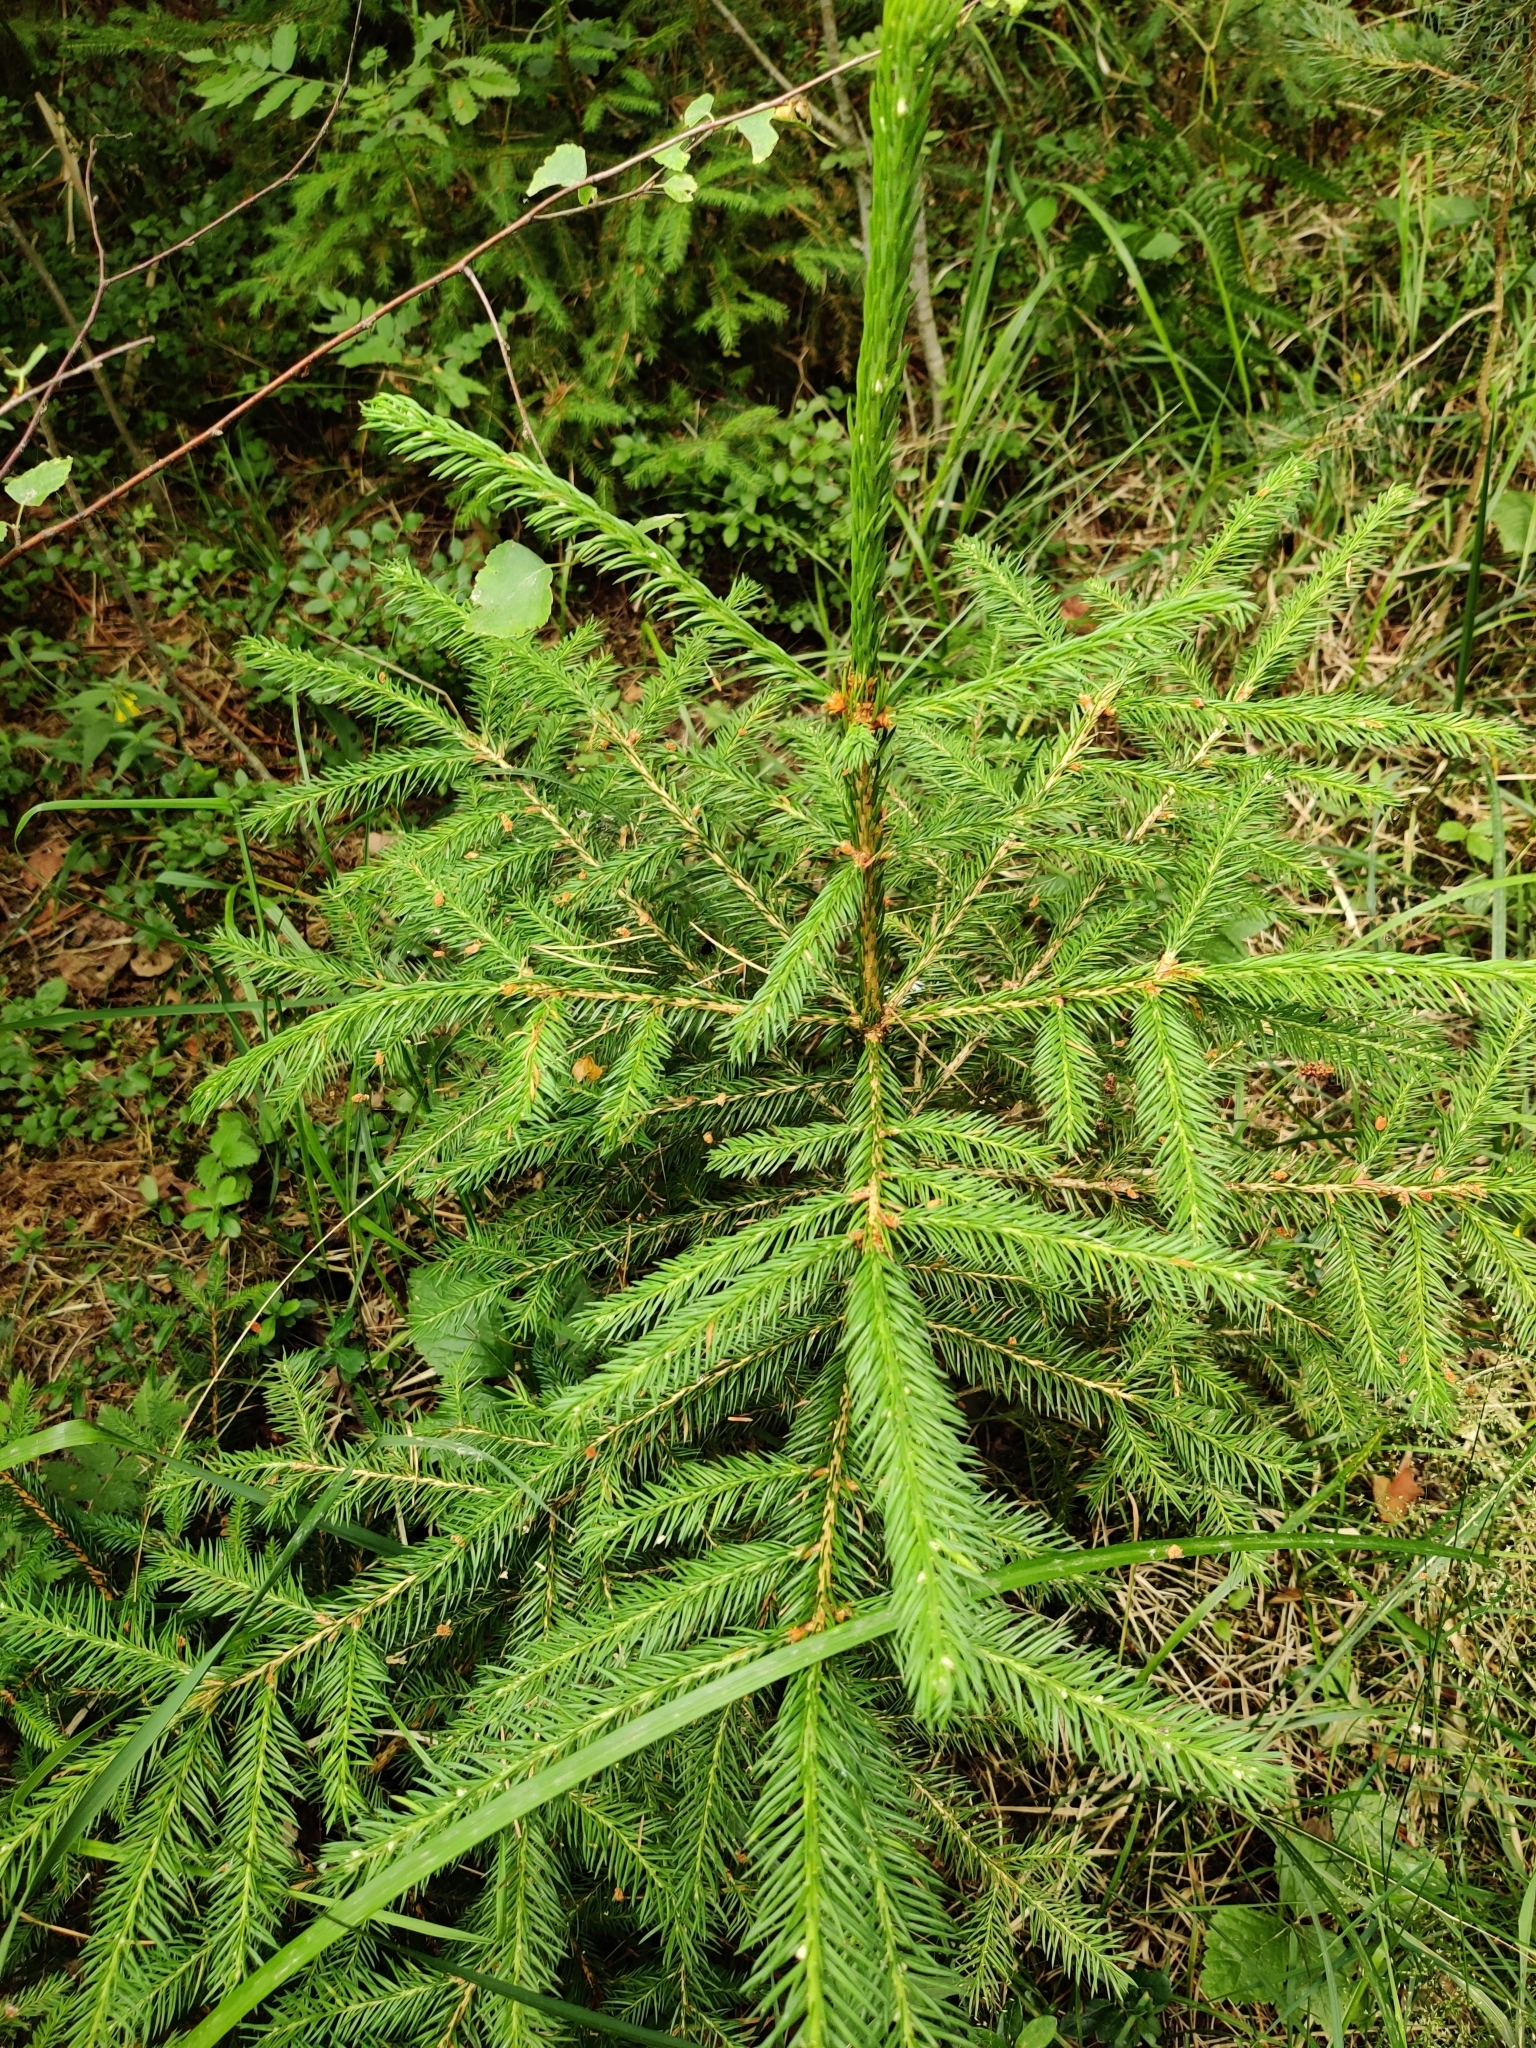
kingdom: Plantae
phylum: Tracheophyta
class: Pinopsida
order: Pinales
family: Pinaceae
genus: Picea
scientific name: Picea abies
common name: Norway spruce
